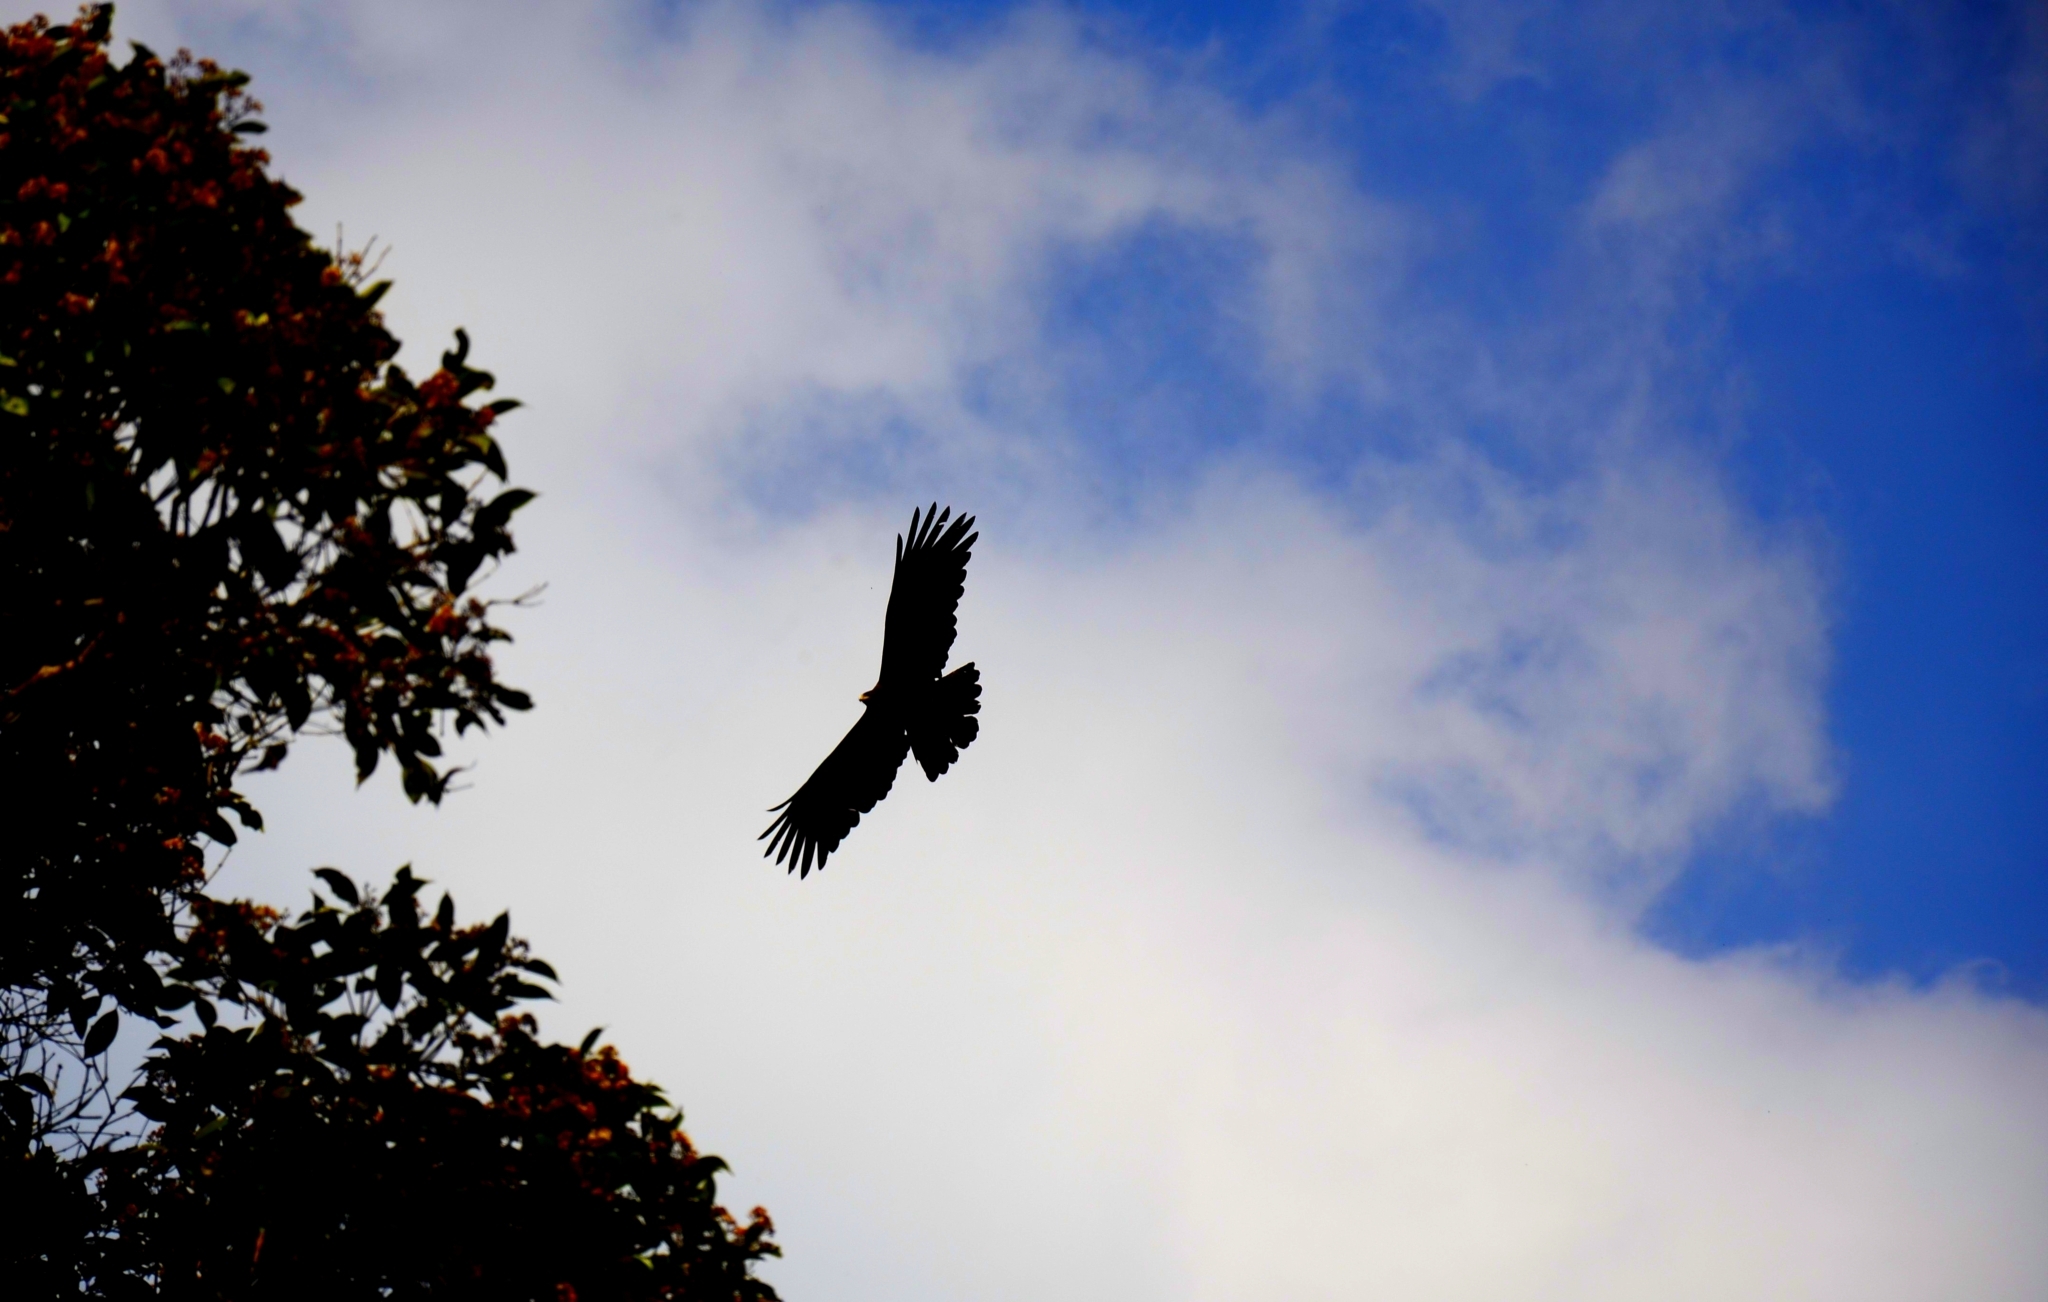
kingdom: Animalia
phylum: Chordata
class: Aves
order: Accipitriformes
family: Accipitridae
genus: Ictinaetus
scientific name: Ictinaetus malayensis
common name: Black eagle
